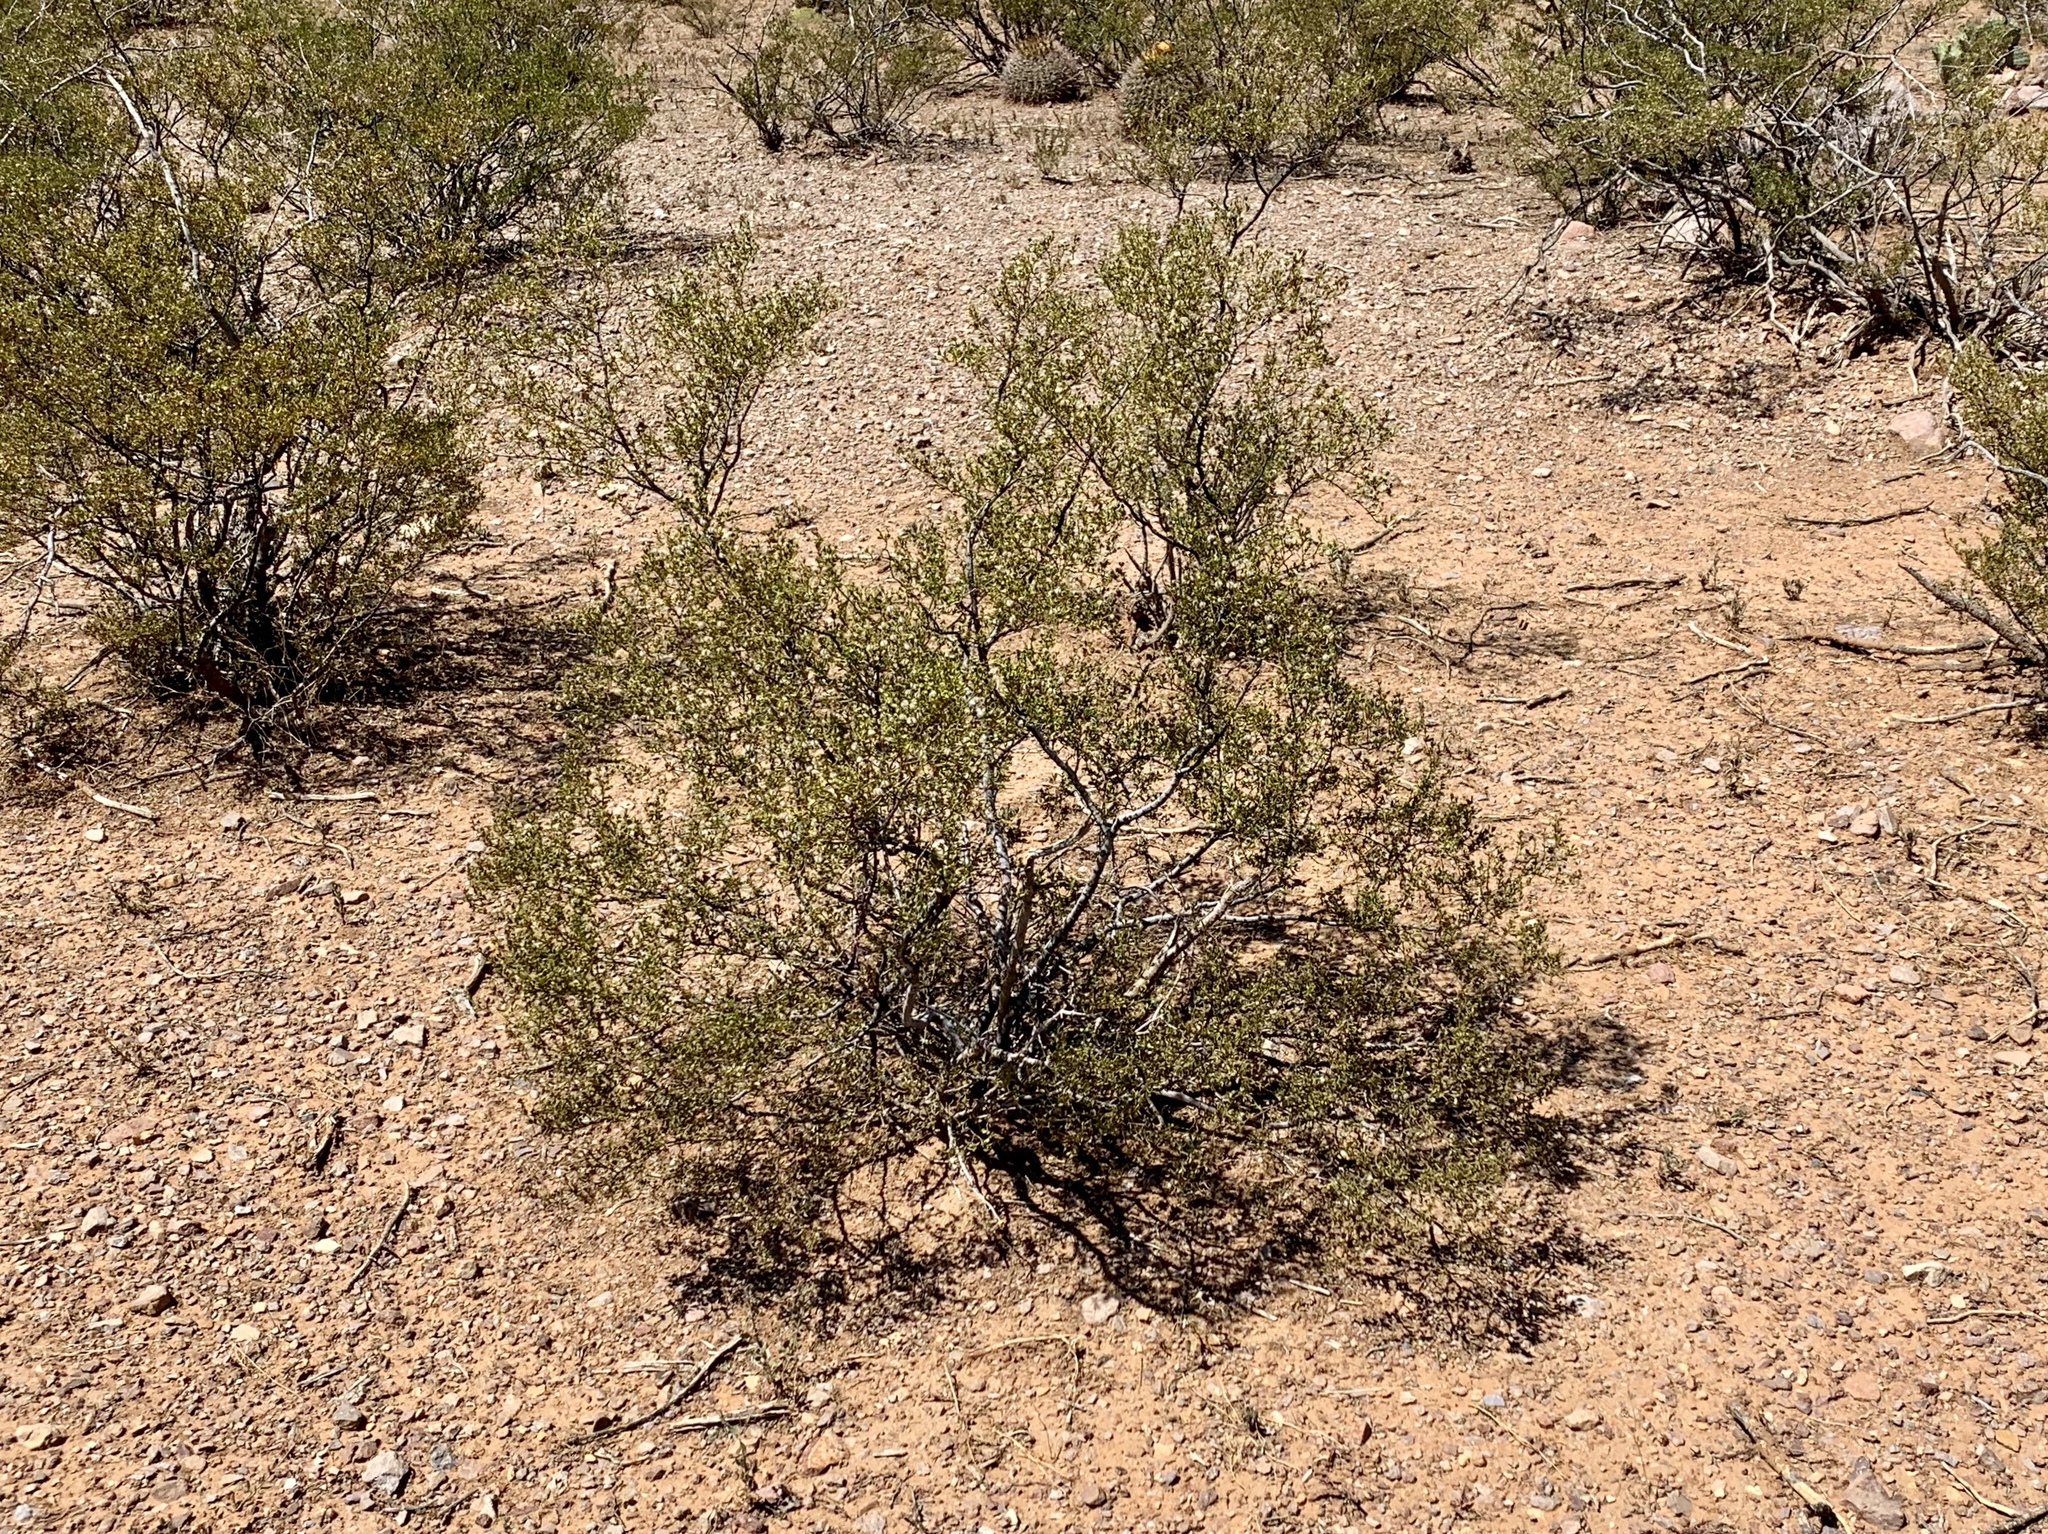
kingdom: Plantae
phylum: Tracheophyta
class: Magnoliopsida
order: Zygophyllales
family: Zygophyllaceae
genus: Larrea
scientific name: Larrea tridentata
